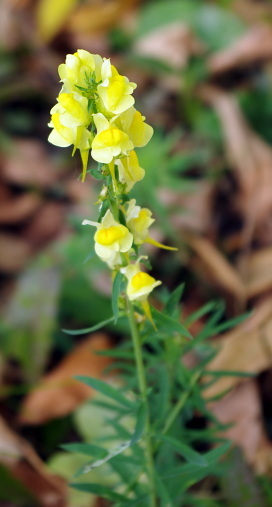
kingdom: Plantae
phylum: Tracheophyta
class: Magnoliopsida
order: Lamiales
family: Plantaginaceae
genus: Linaria
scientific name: Linaria vulgaris
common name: Butter and eggs
